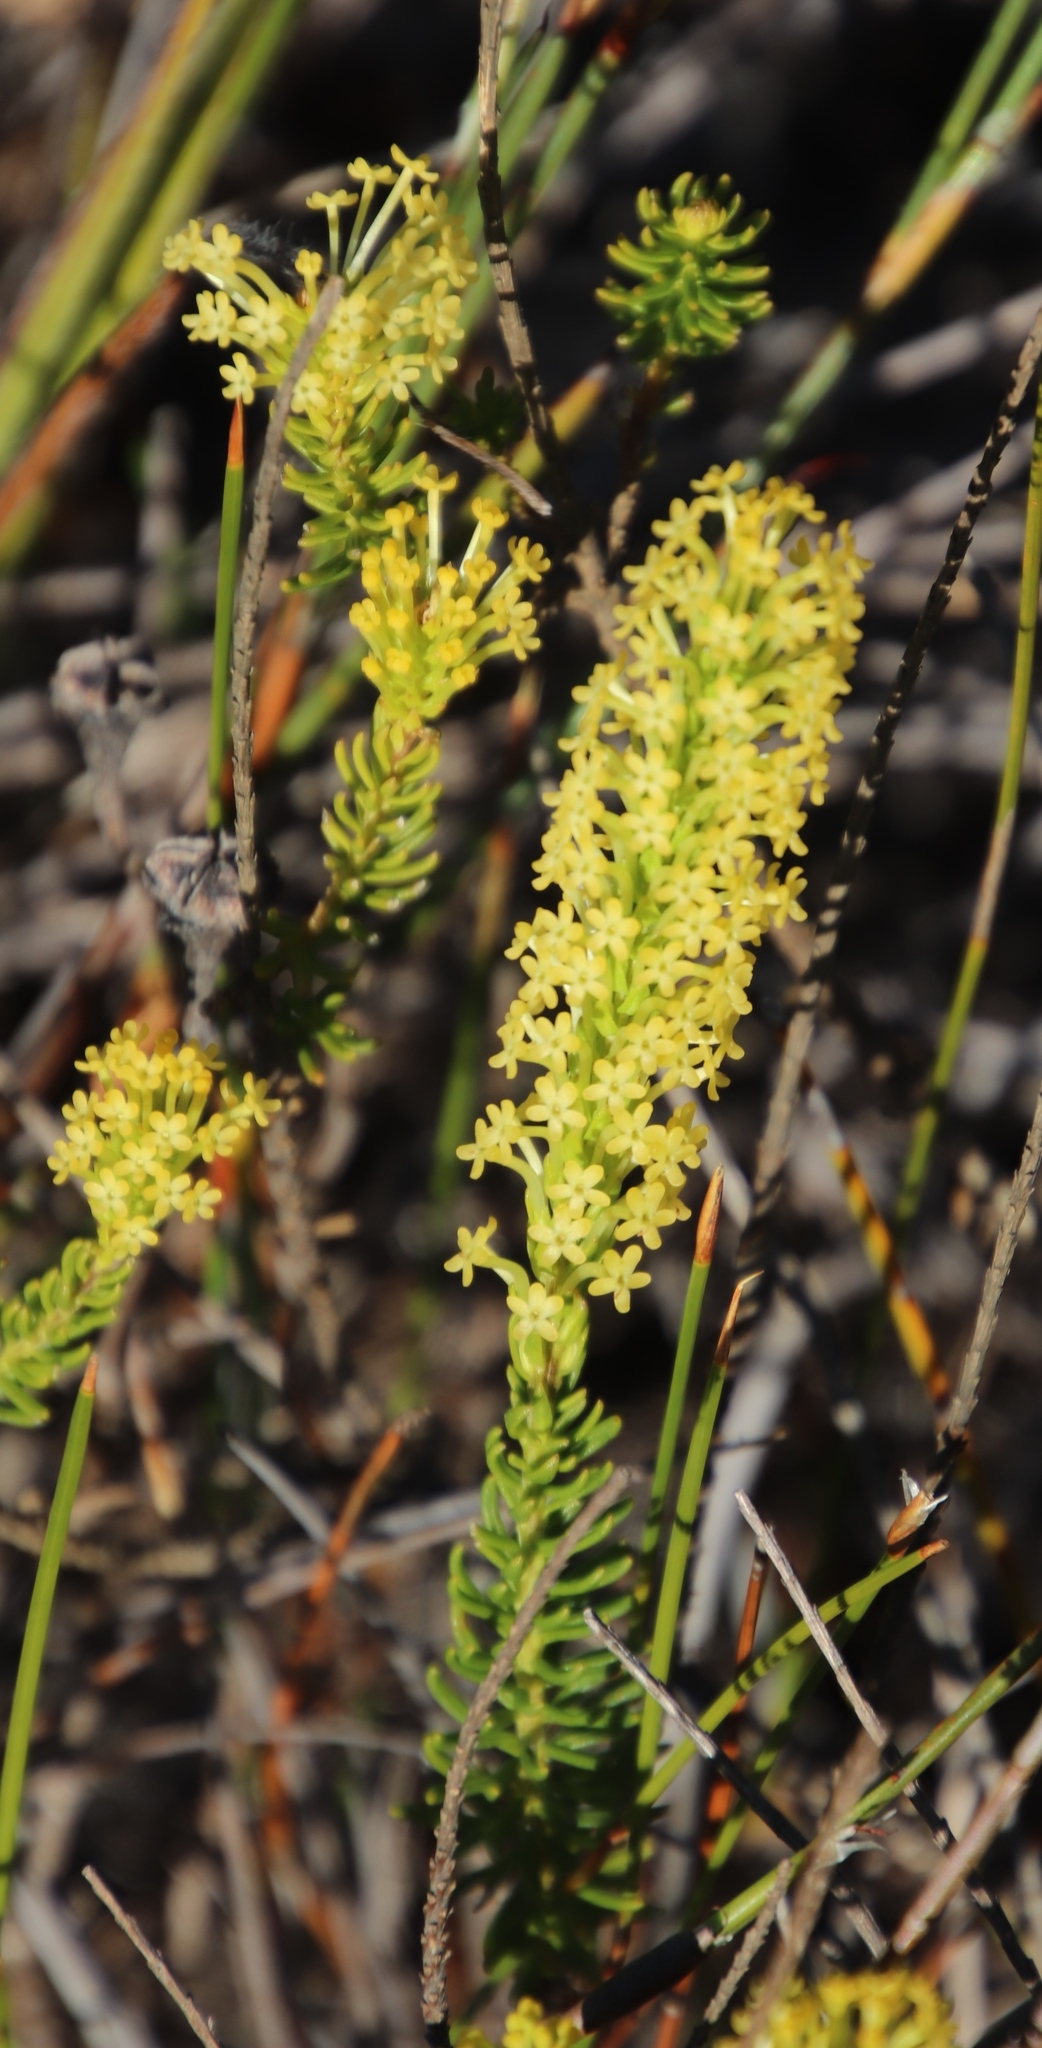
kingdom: Plantae
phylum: Tracheophyta
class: Magnoliopsida
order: Lamiales
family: Scrophulariaceae
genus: Microdon
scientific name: Microdon dubius
